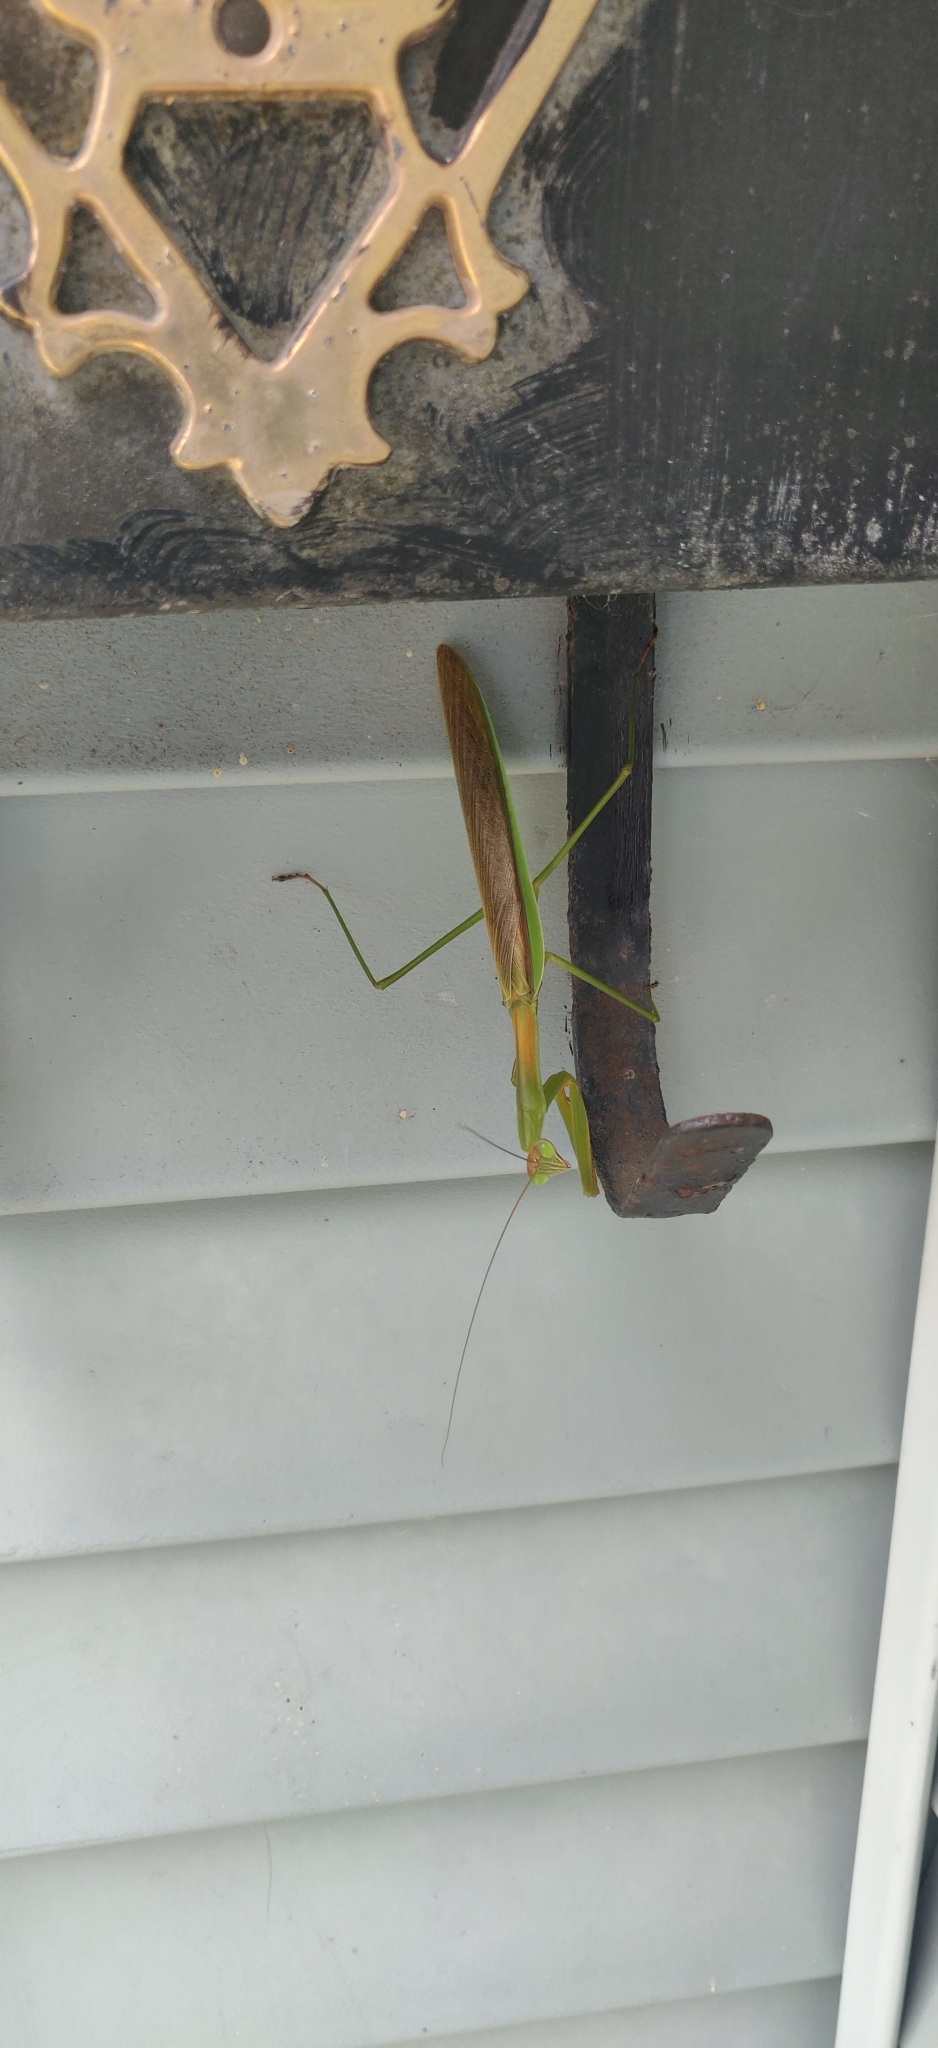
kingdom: Animalia
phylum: Arthropoda
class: Insecta
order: Mantodea
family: Mantidae
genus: Tenodera
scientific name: Tenodera sinensis
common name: Chinese mantis
